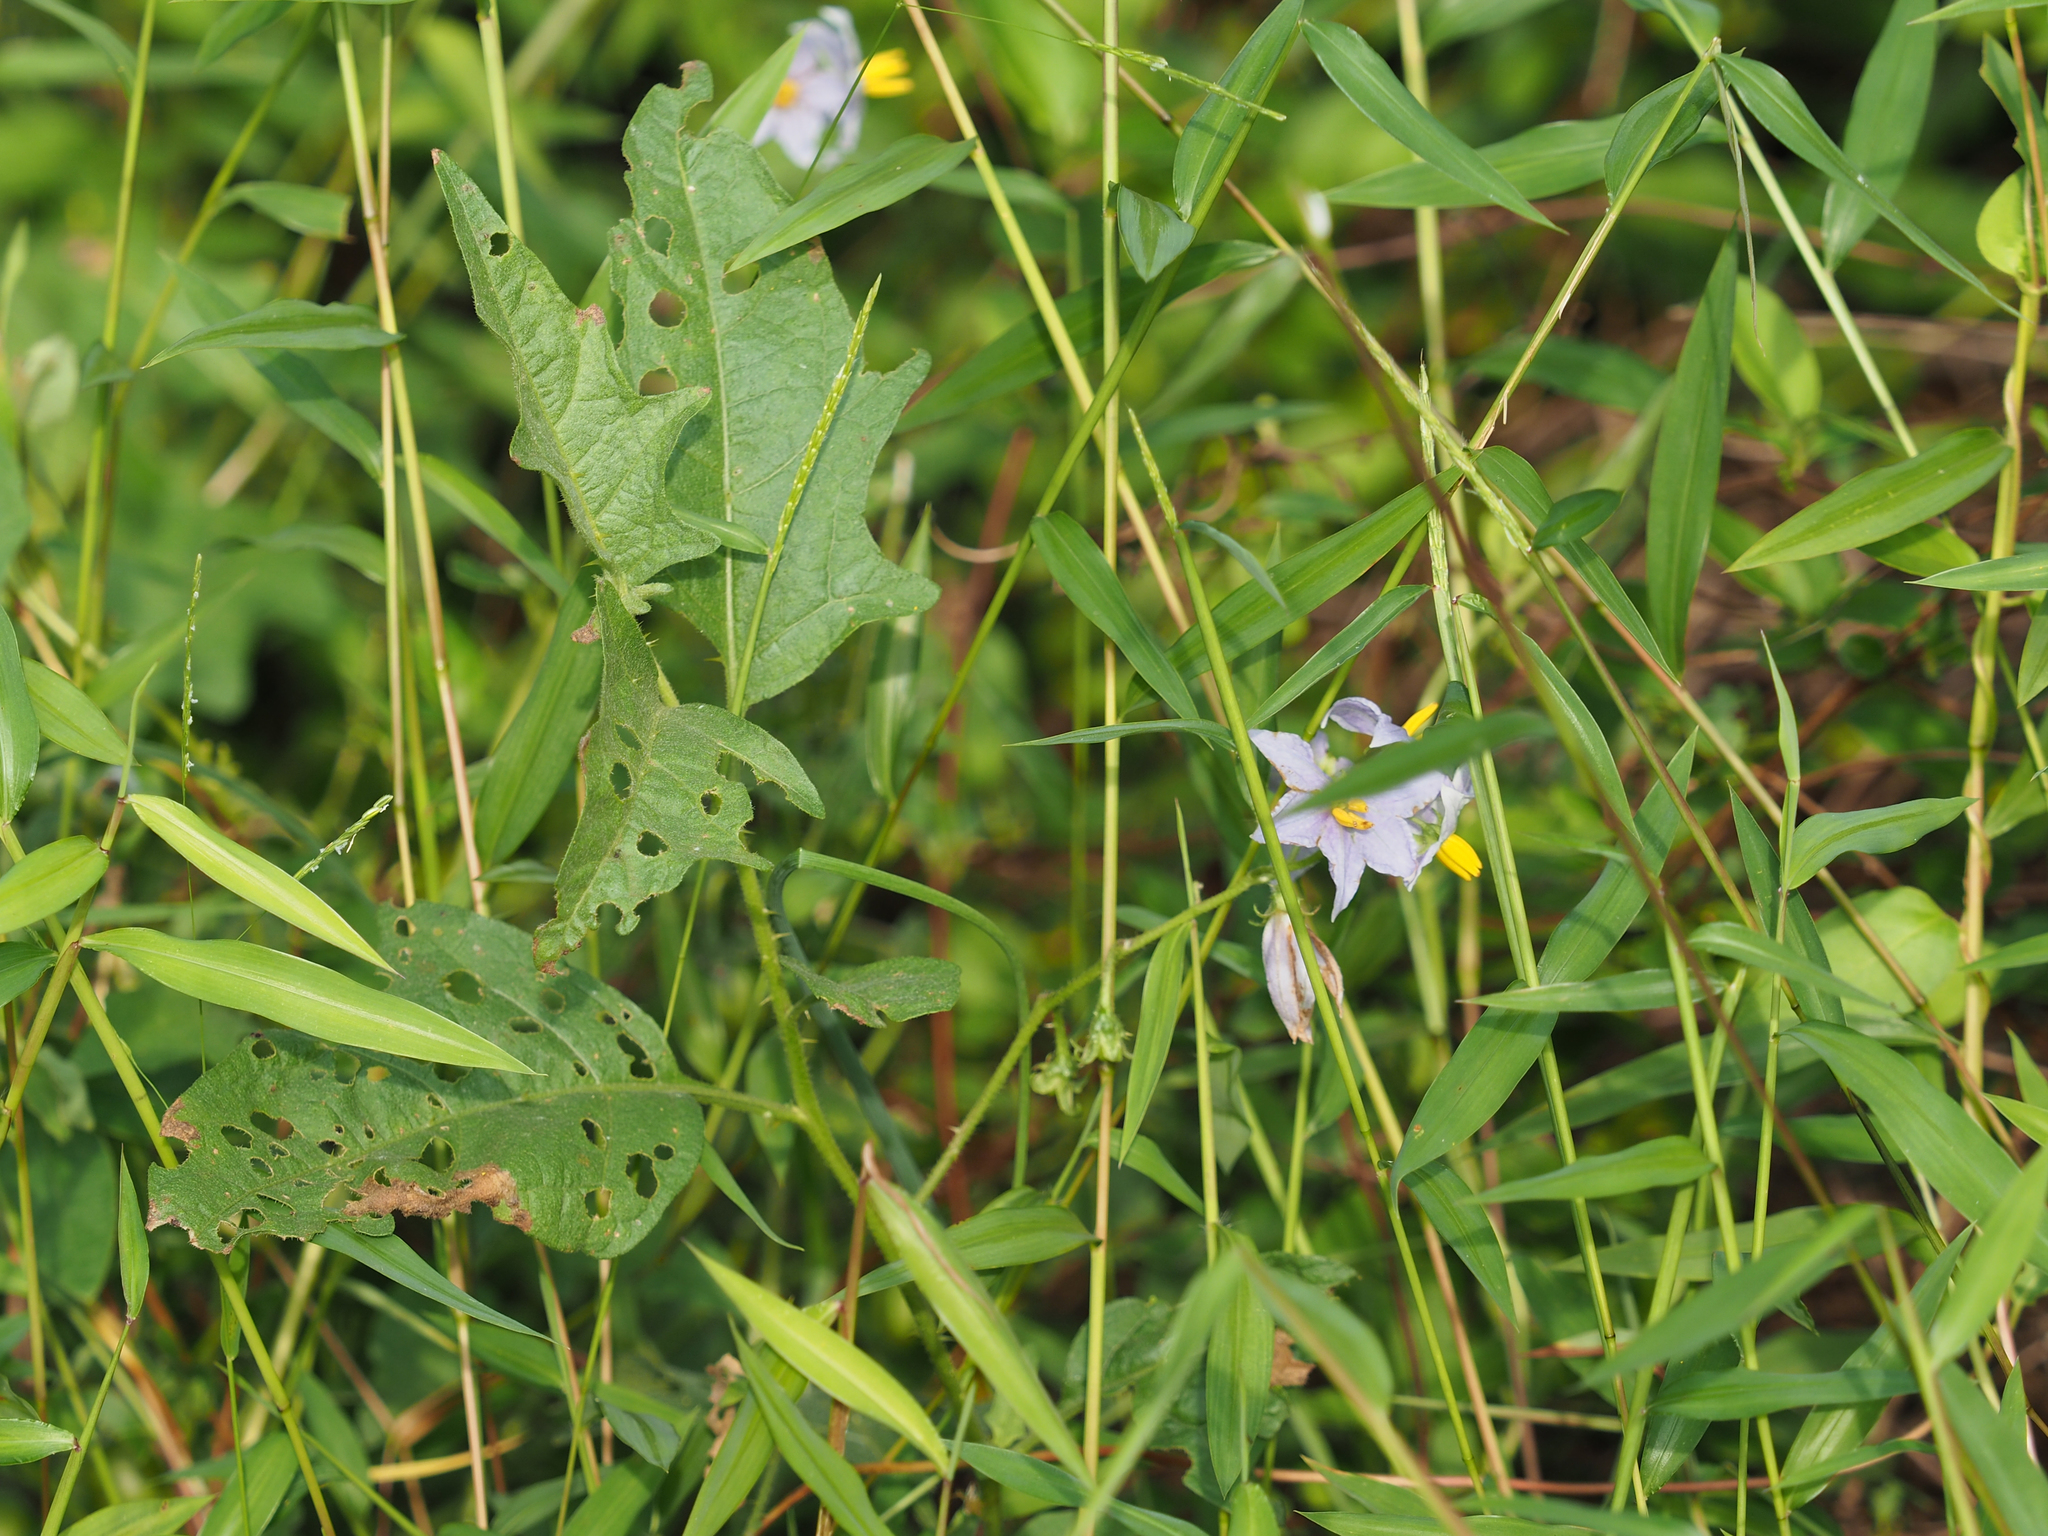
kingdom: Plantae
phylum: Tracheophyta
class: Magnoliopsida
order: Solanales
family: Solanaceae
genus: Solanum
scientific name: Solanum carolinense
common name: Horse-nettle
